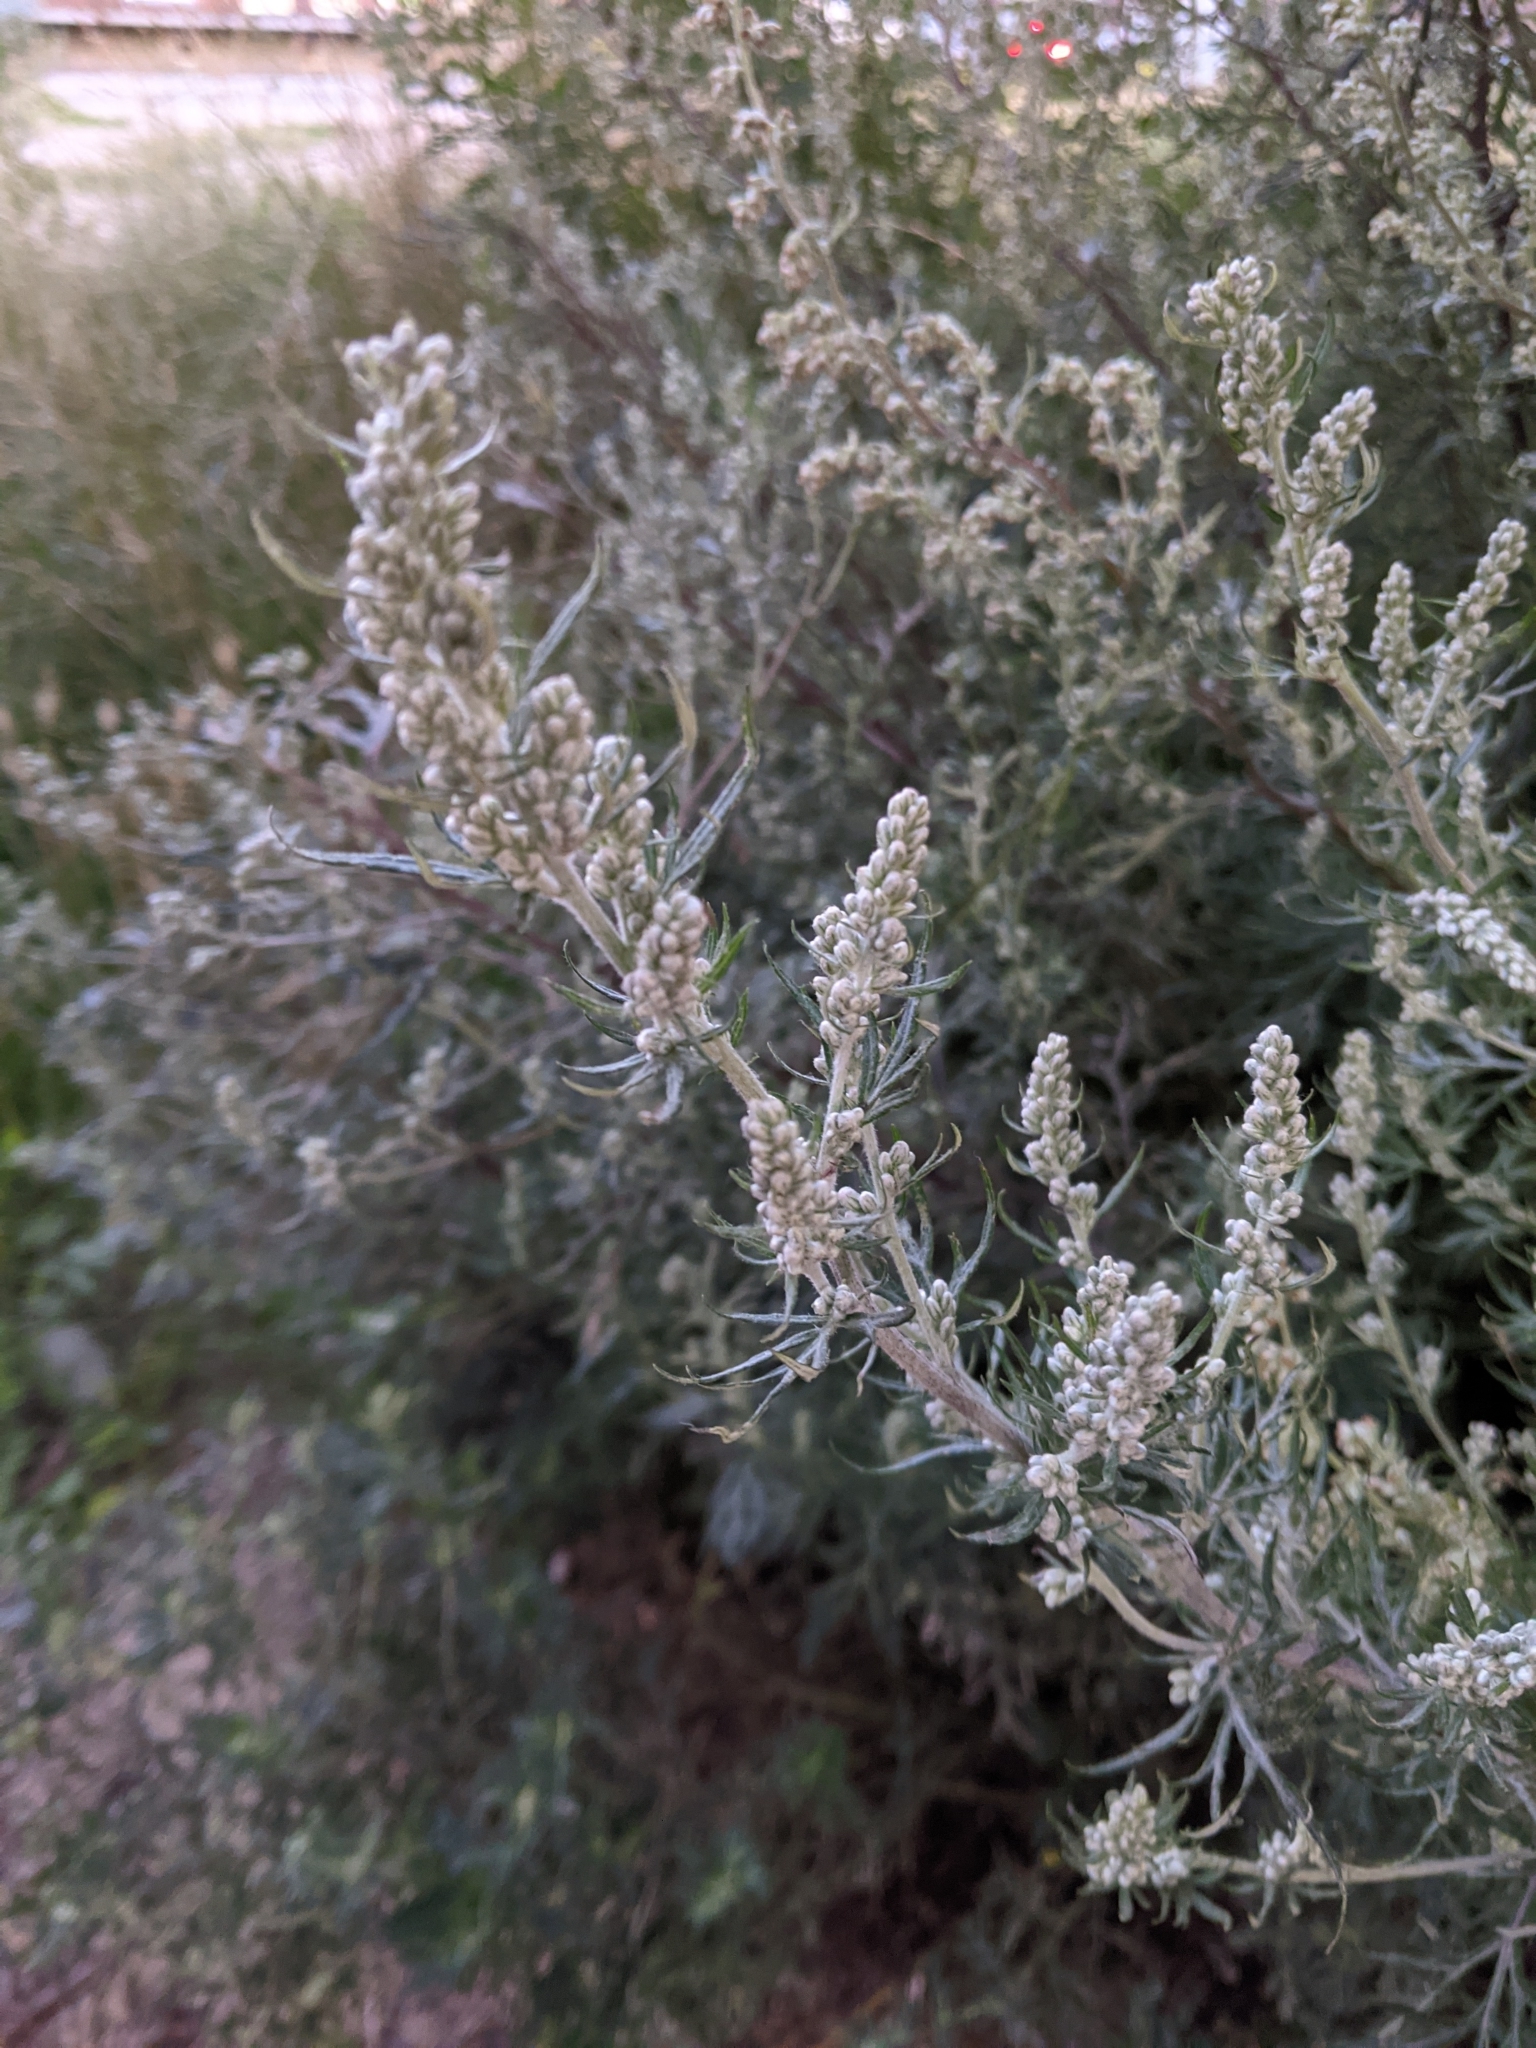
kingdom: Plantae
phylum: Tracheophyta
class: Magnoliopsida
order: Asterales
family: Asteraceae
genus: Artemisia
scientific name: Artemisia vulgaris
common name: Mugwort
